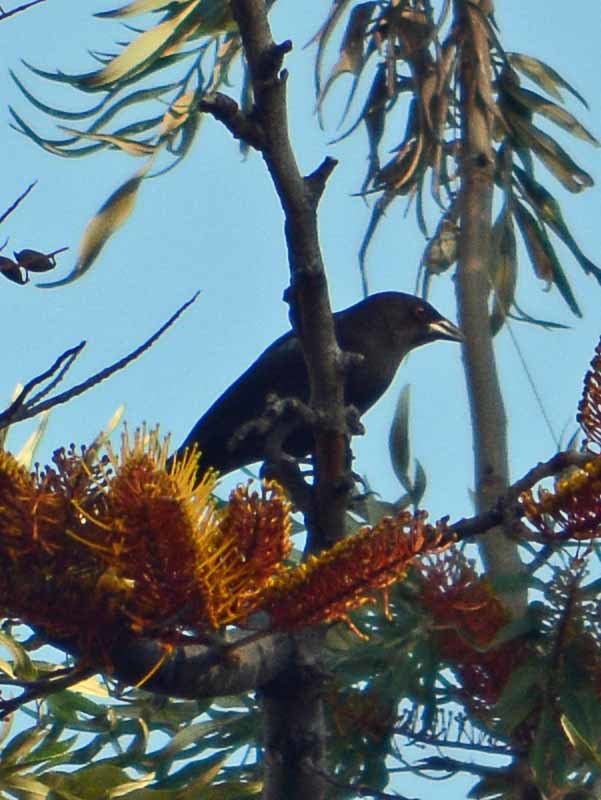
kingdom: Animalia
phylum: Chordata
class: Aves
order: Passeriformes
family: Icteridae
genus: Molothrus
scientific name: Molothrus aeneus
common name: Bronzed cowbird
